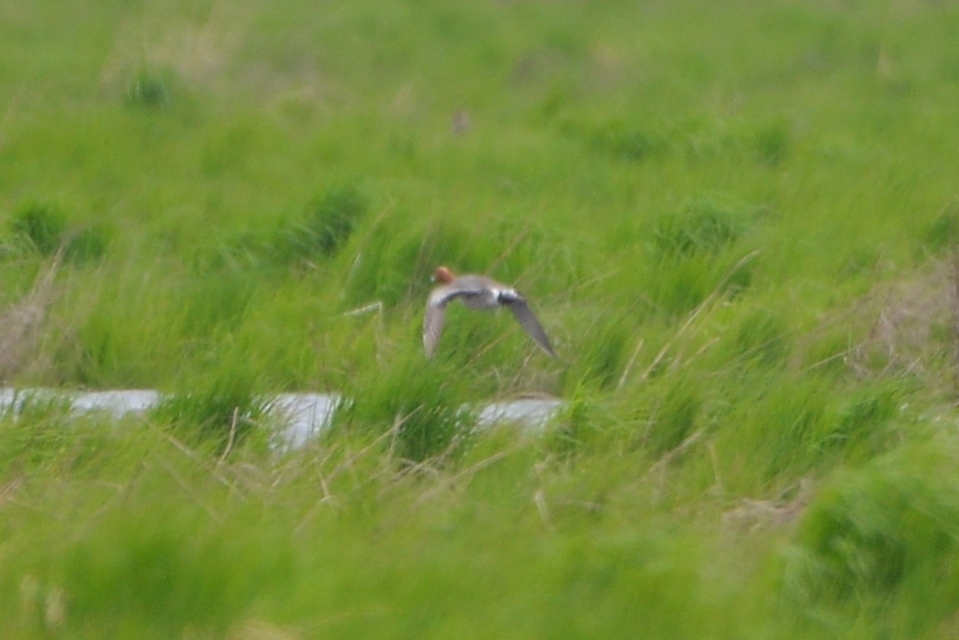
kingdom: Animalia
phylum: Chordata
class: Aves
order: Anseriformes
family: Anatidae
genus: Mareca
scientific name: Mareca penelope
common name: Eurasian wigeon
